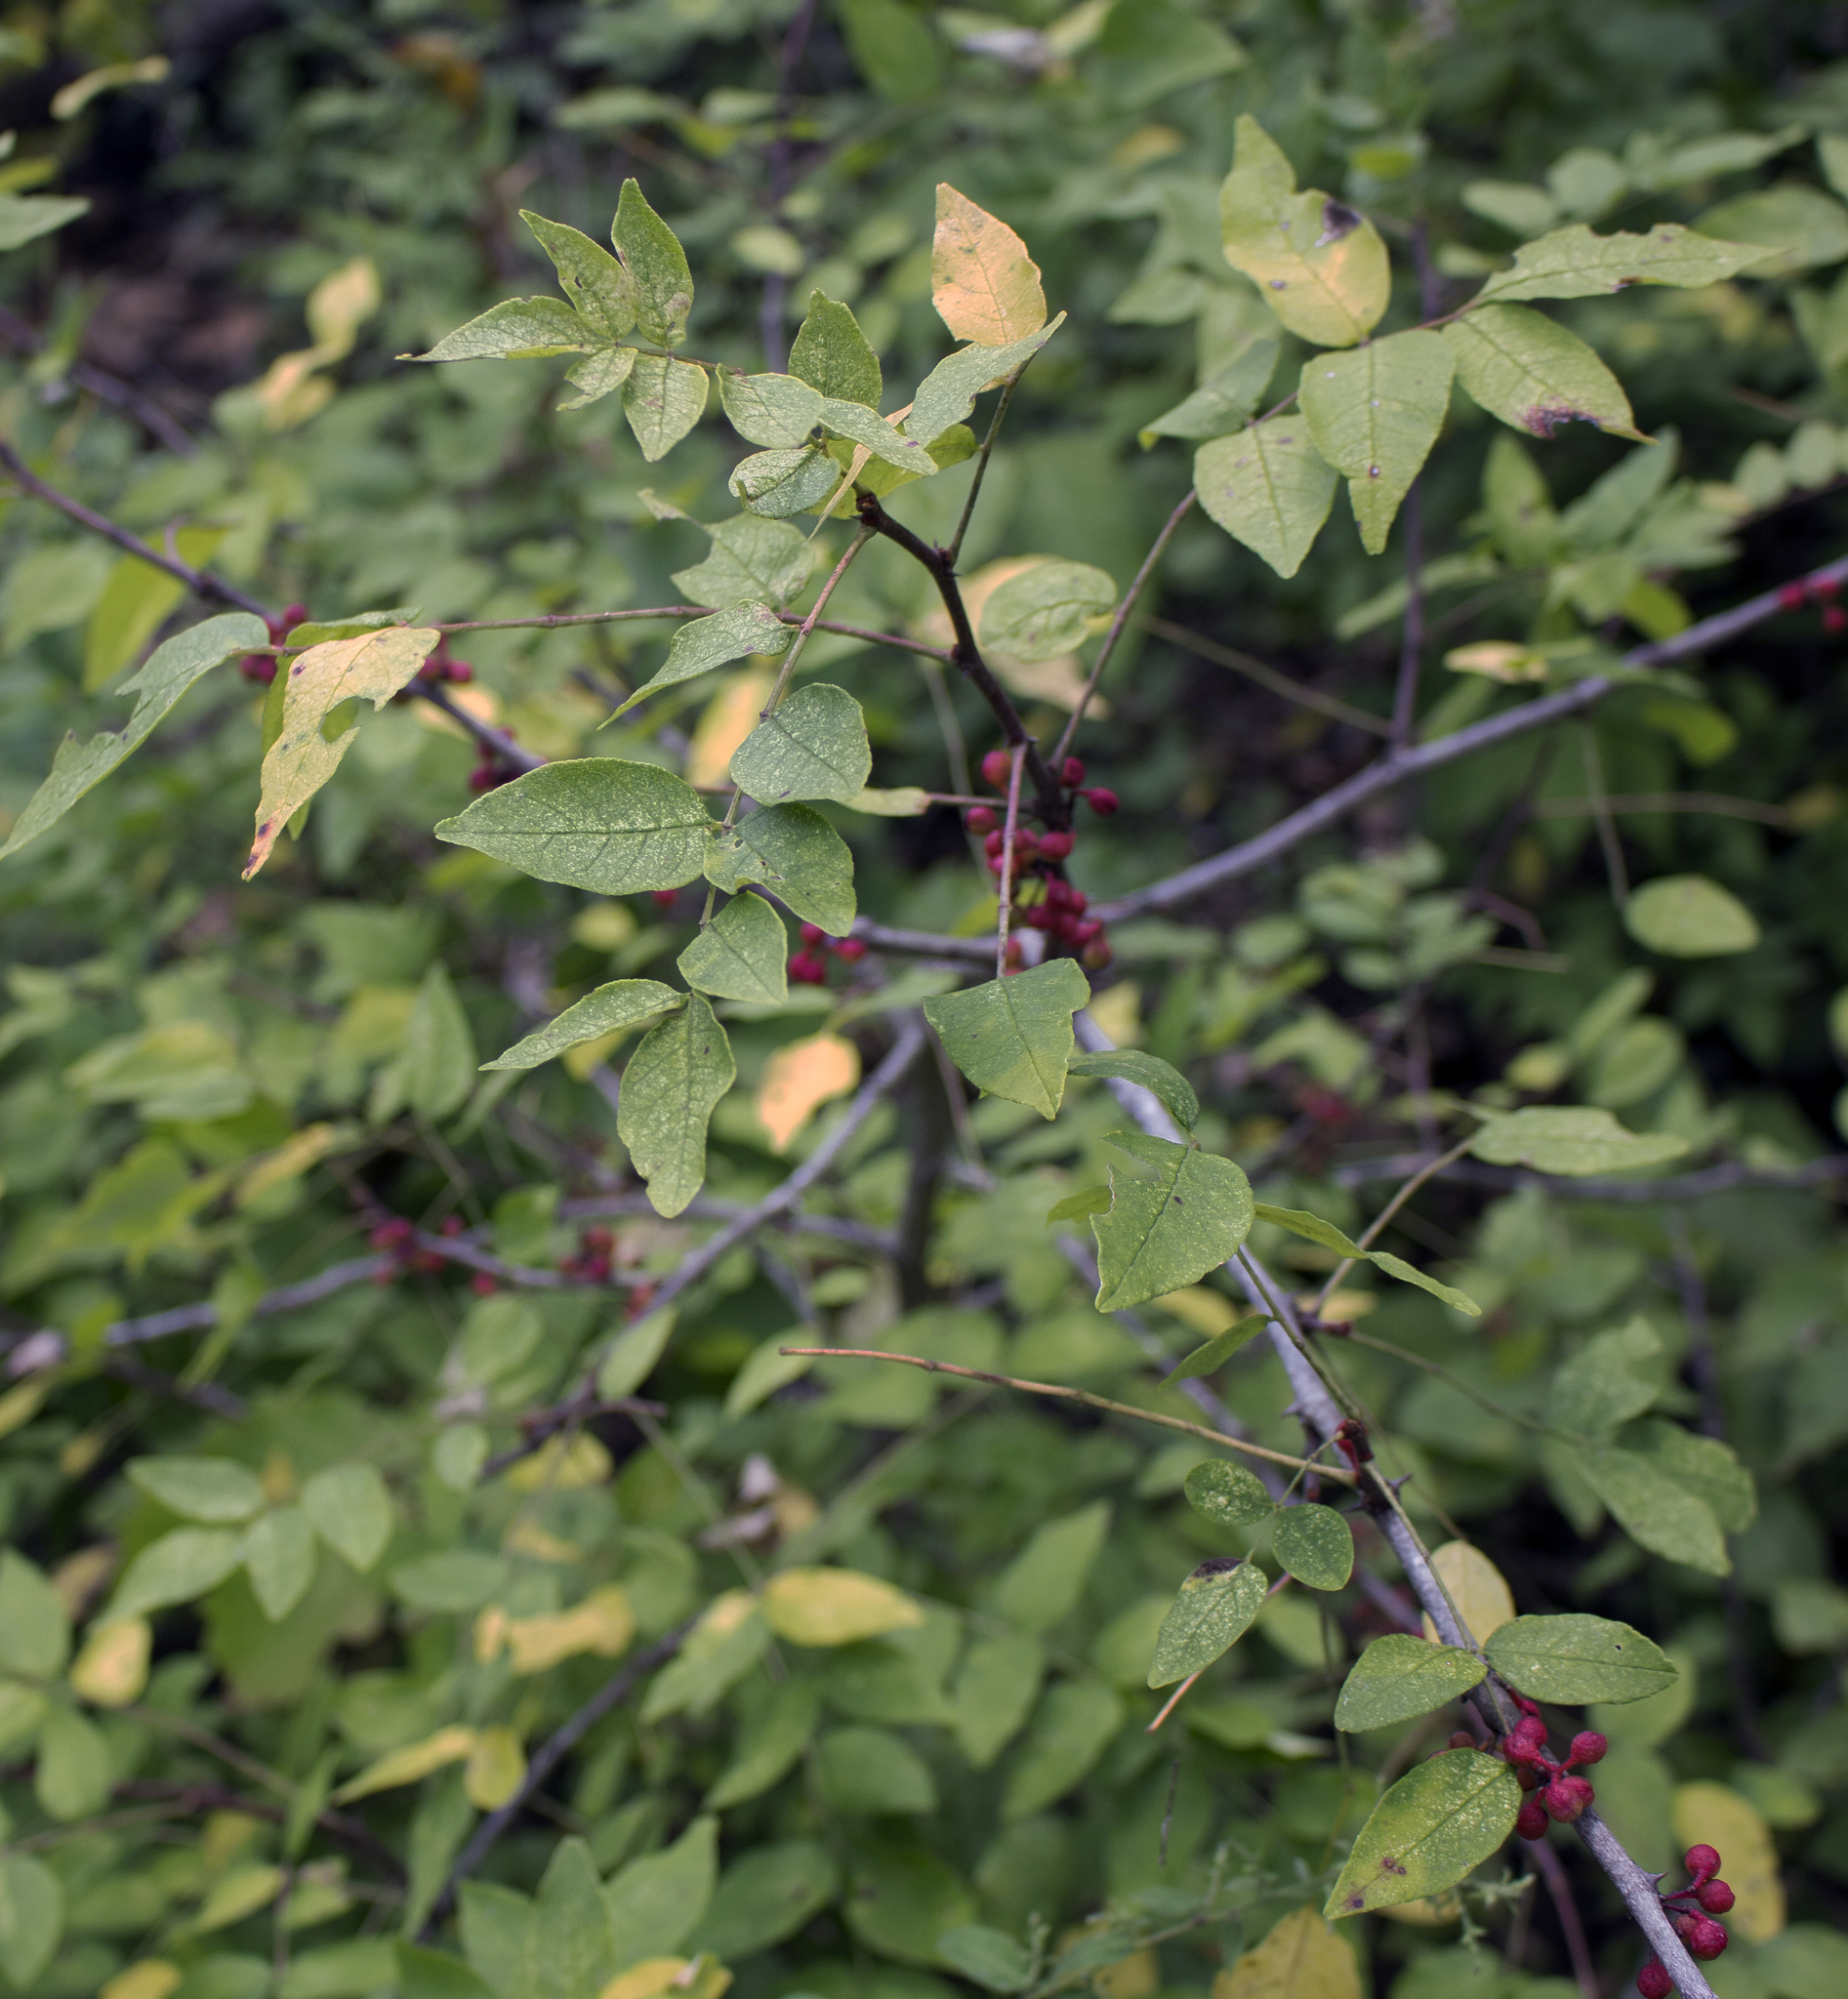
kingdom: Plantae
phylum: Tracheophyta
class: Magnoliopsida
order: Sapindales
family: Rutaceae
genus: Zanthoxylum
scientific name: Zanthoxylum americanum
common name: Northern prickly-ash
